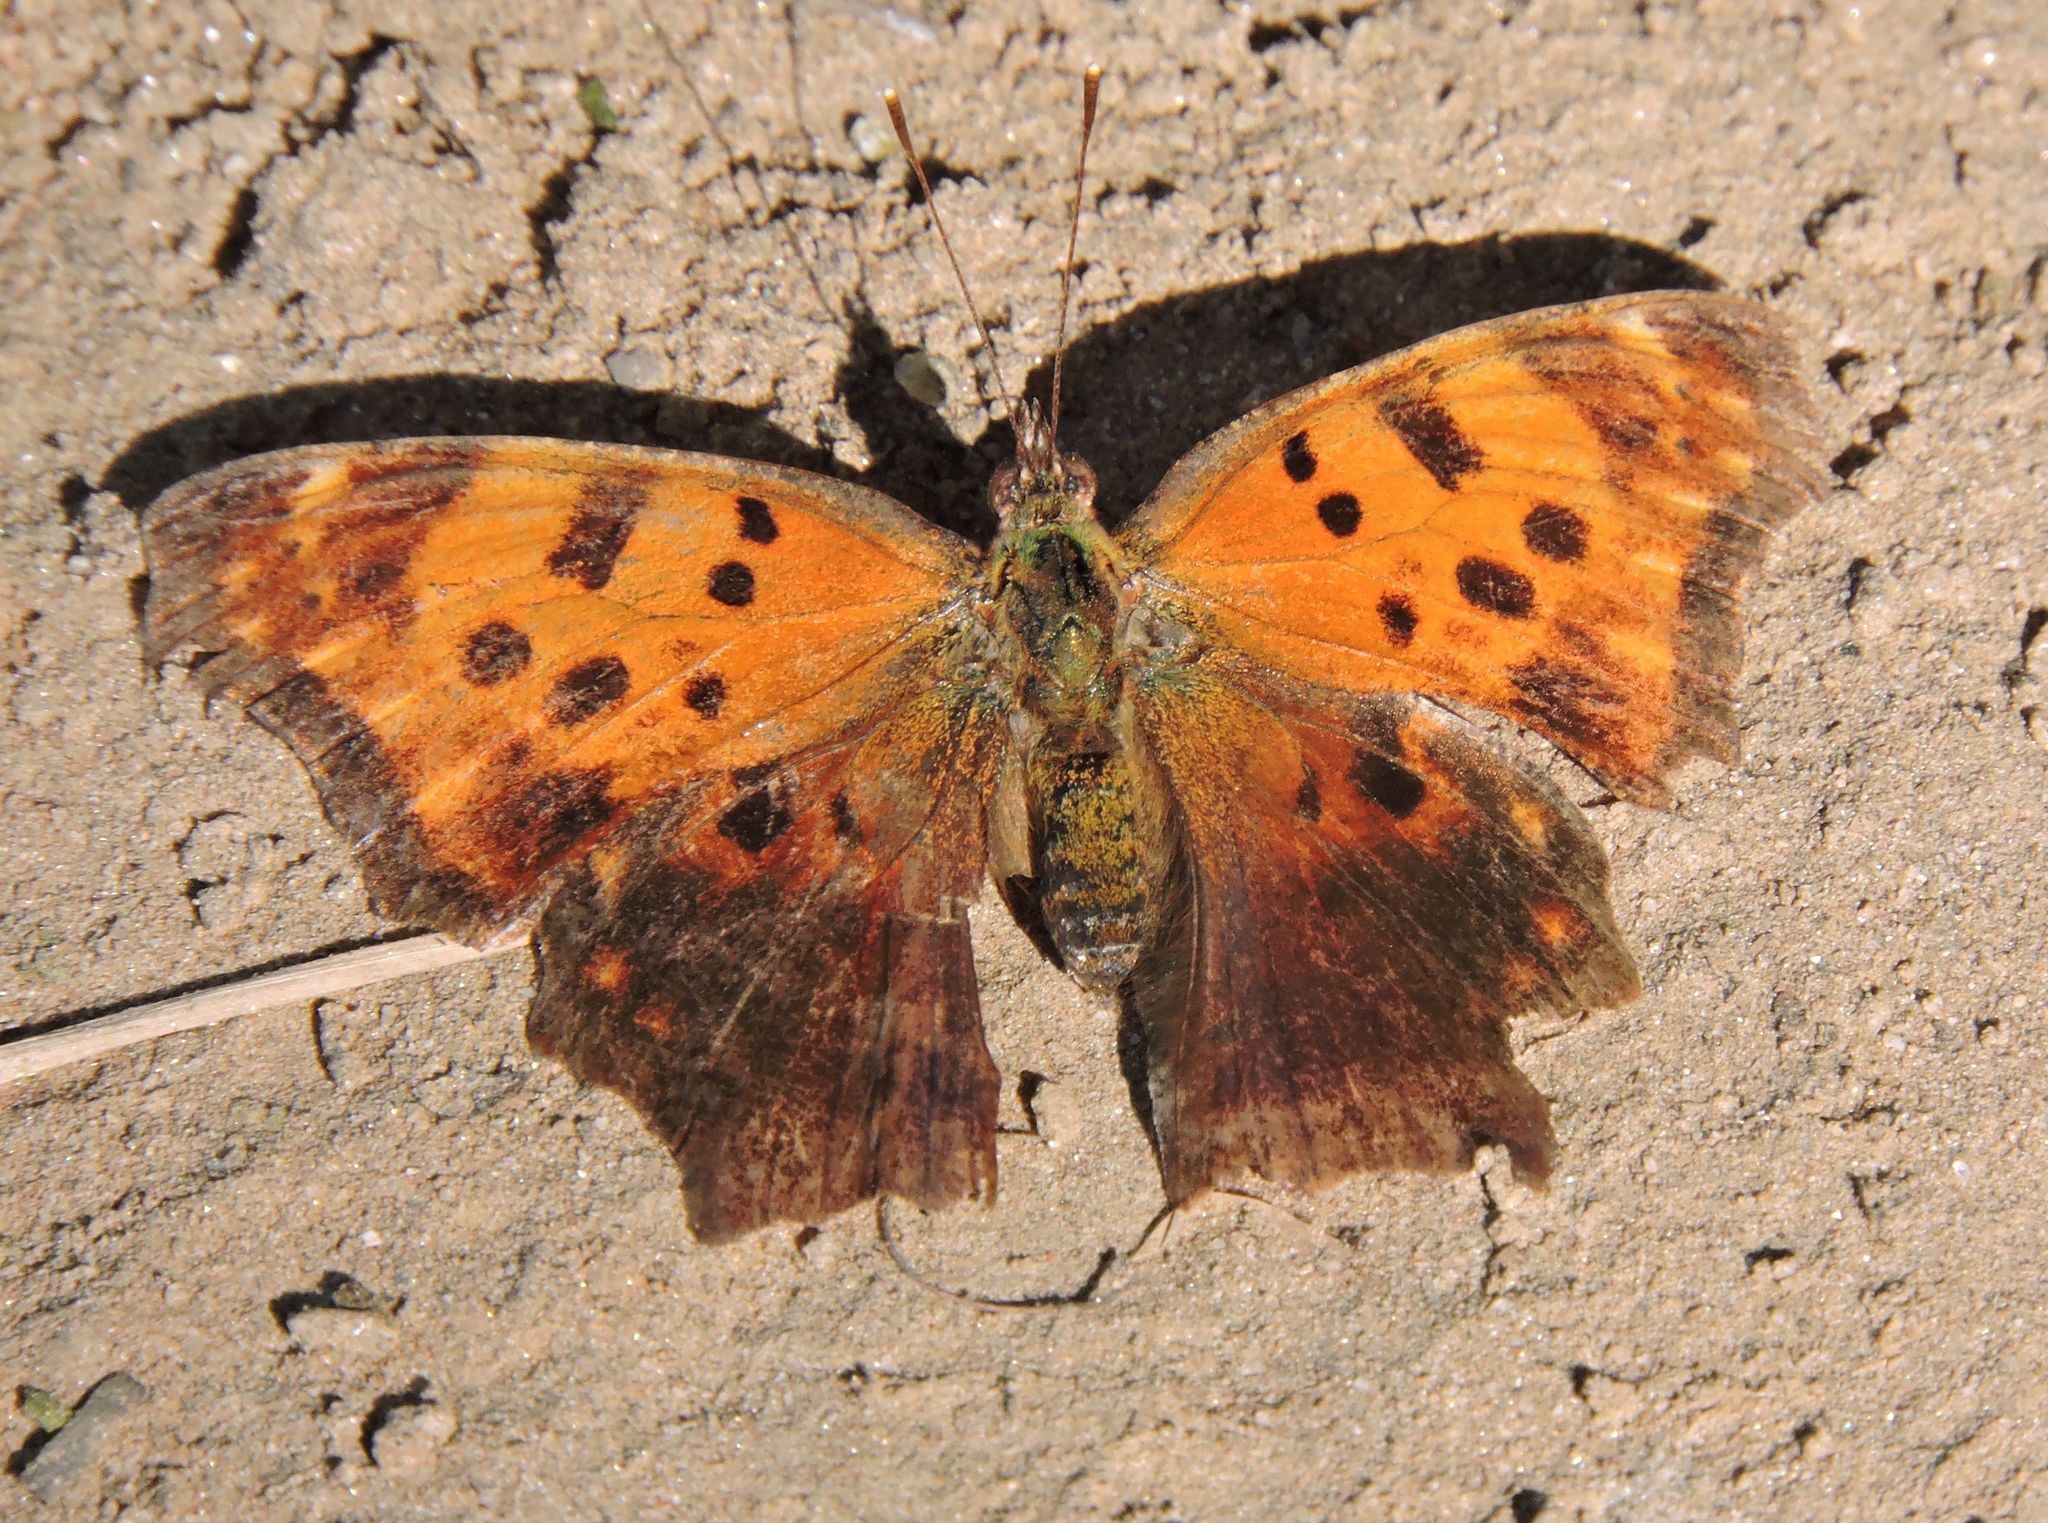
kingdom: Animalia
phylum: Arthropoda
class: Insecta
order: Lepidoptera
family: Nymphalidae
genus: Polygonia
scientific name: Polygonia comma
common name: Eastern comma
